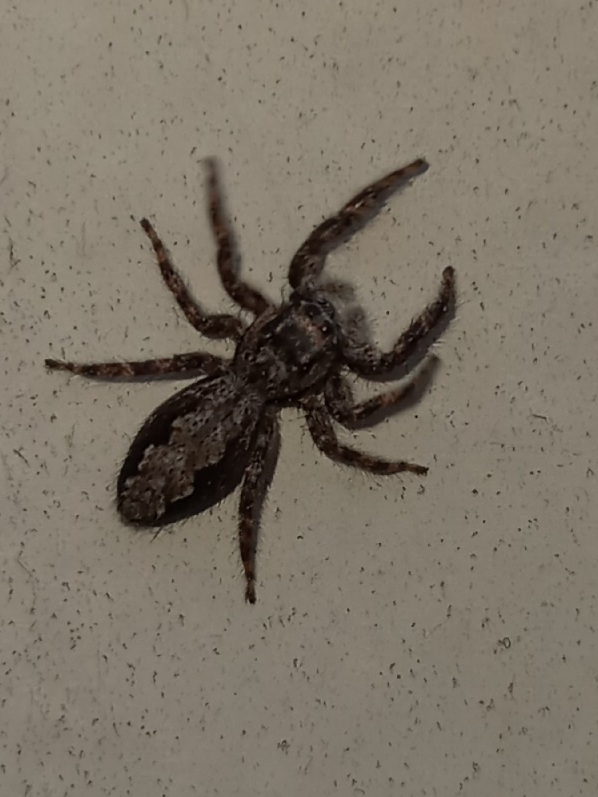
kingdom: Animalia
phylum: Arthropoda
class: Arachnida
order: Araneae
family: Salticidae
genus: Platycryptus
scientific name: Platycryptus undatus
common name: Tan jumping spider
